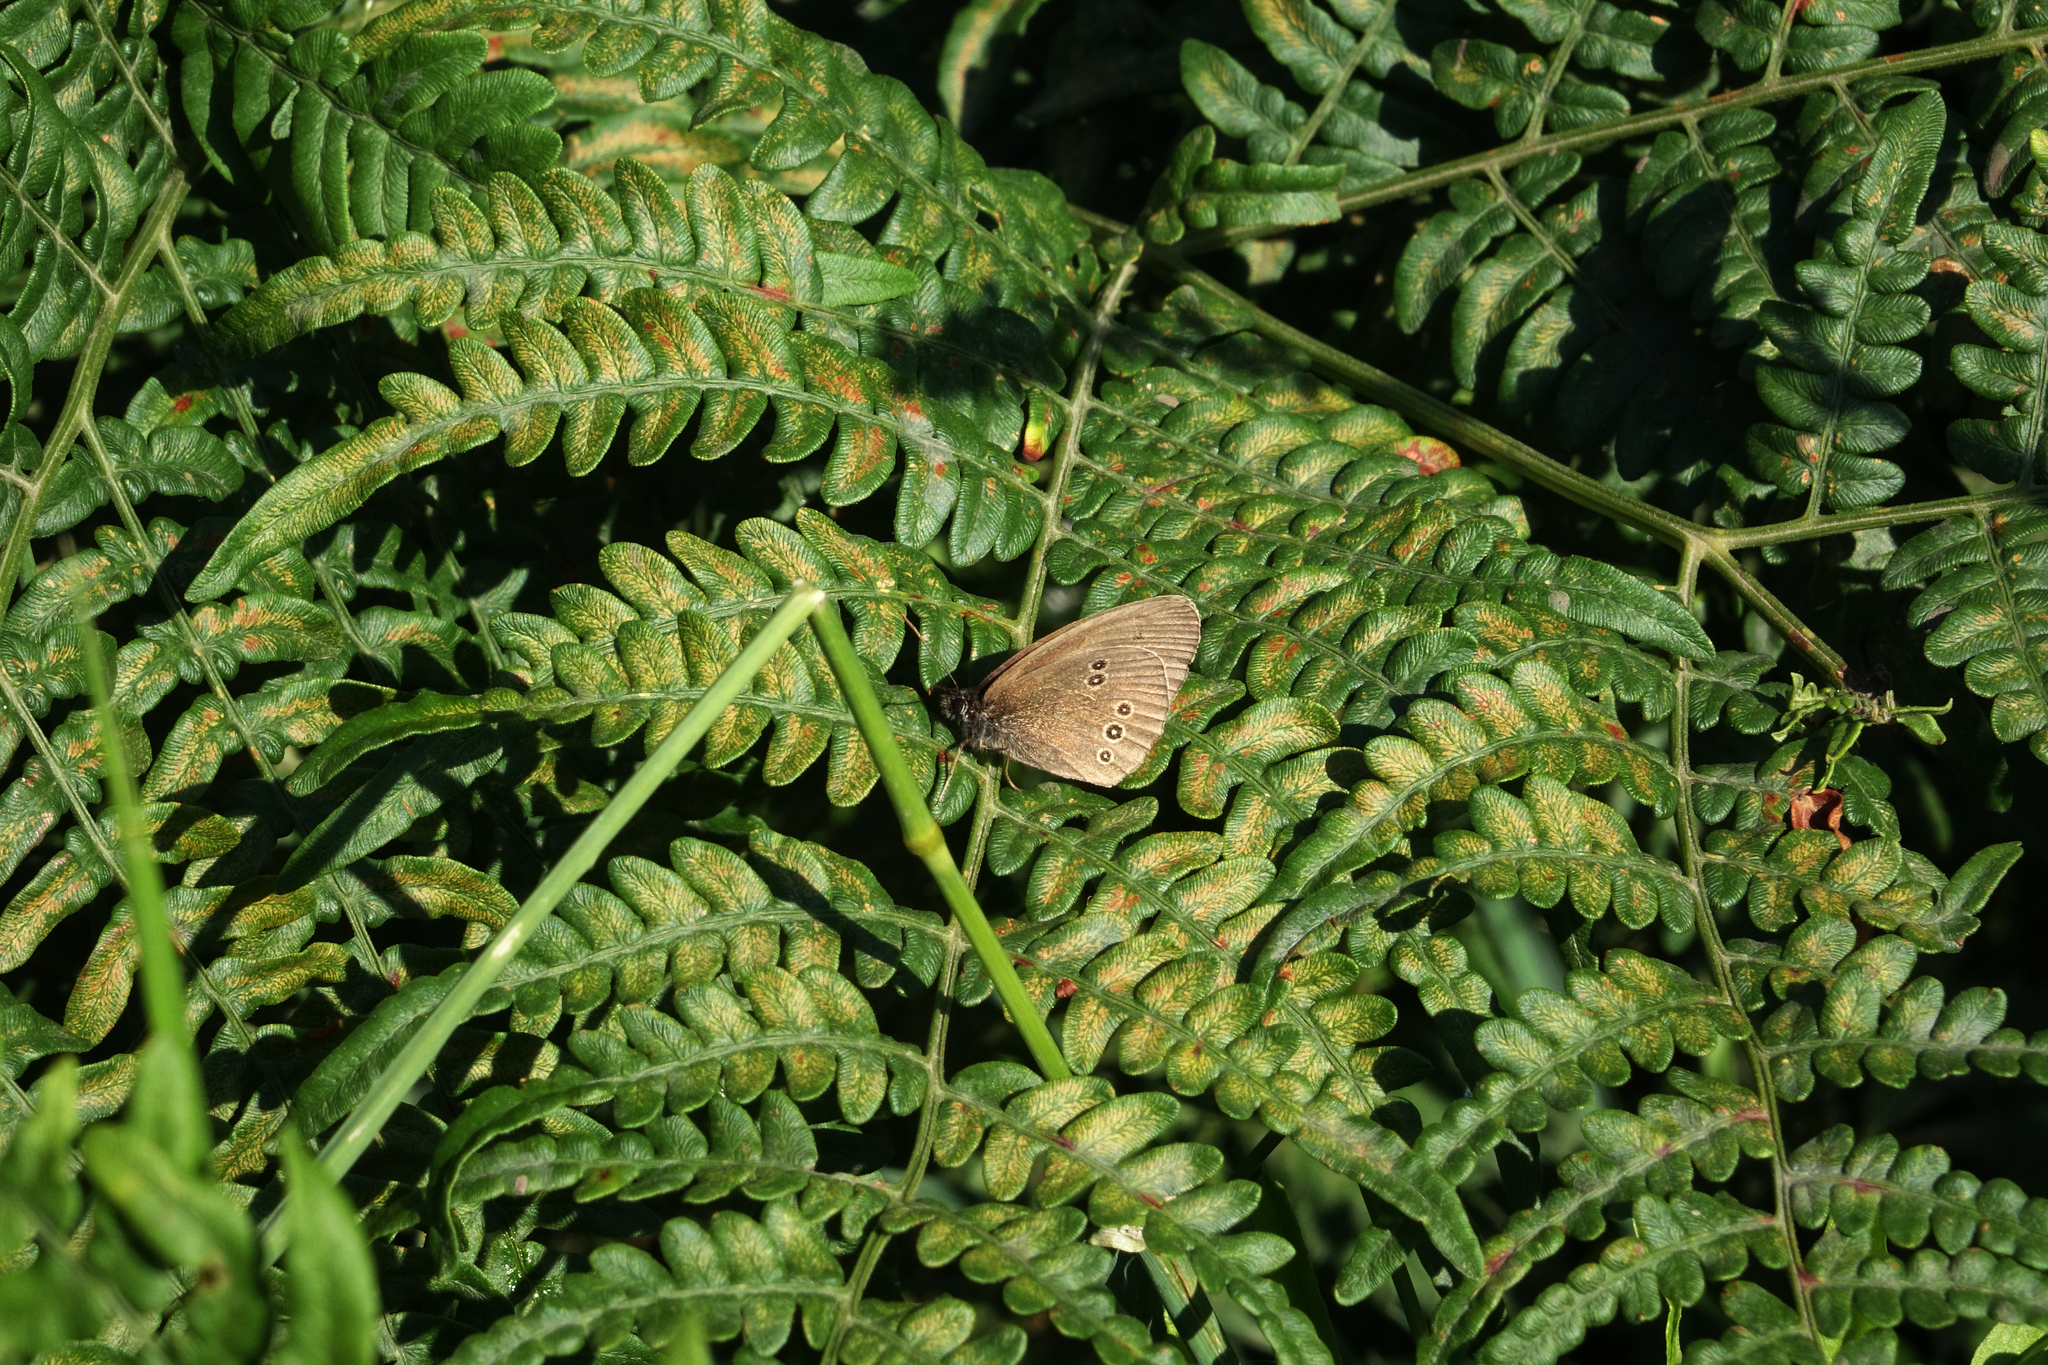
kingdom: Plantae
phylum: Tracheophyta
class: Polypodiopsida
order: Polypodiales
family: Dennstaedtiaceae
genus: Pteridium
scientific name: Pteridium aquilinum
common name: Bracken
